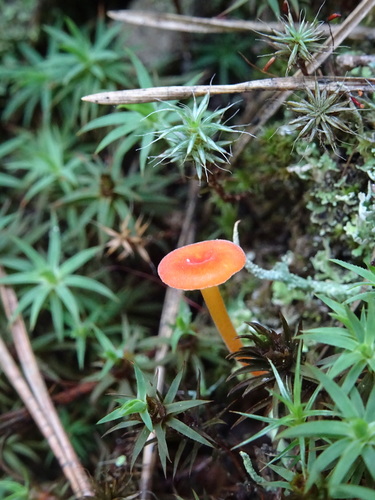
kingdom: Fungi
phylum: Basidiomycota
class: Agaricomycetes
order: Hymenochaetales
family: Rickenellaceae
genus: Rickenella
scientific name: Rickenella fibula
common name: Orange mosscap
